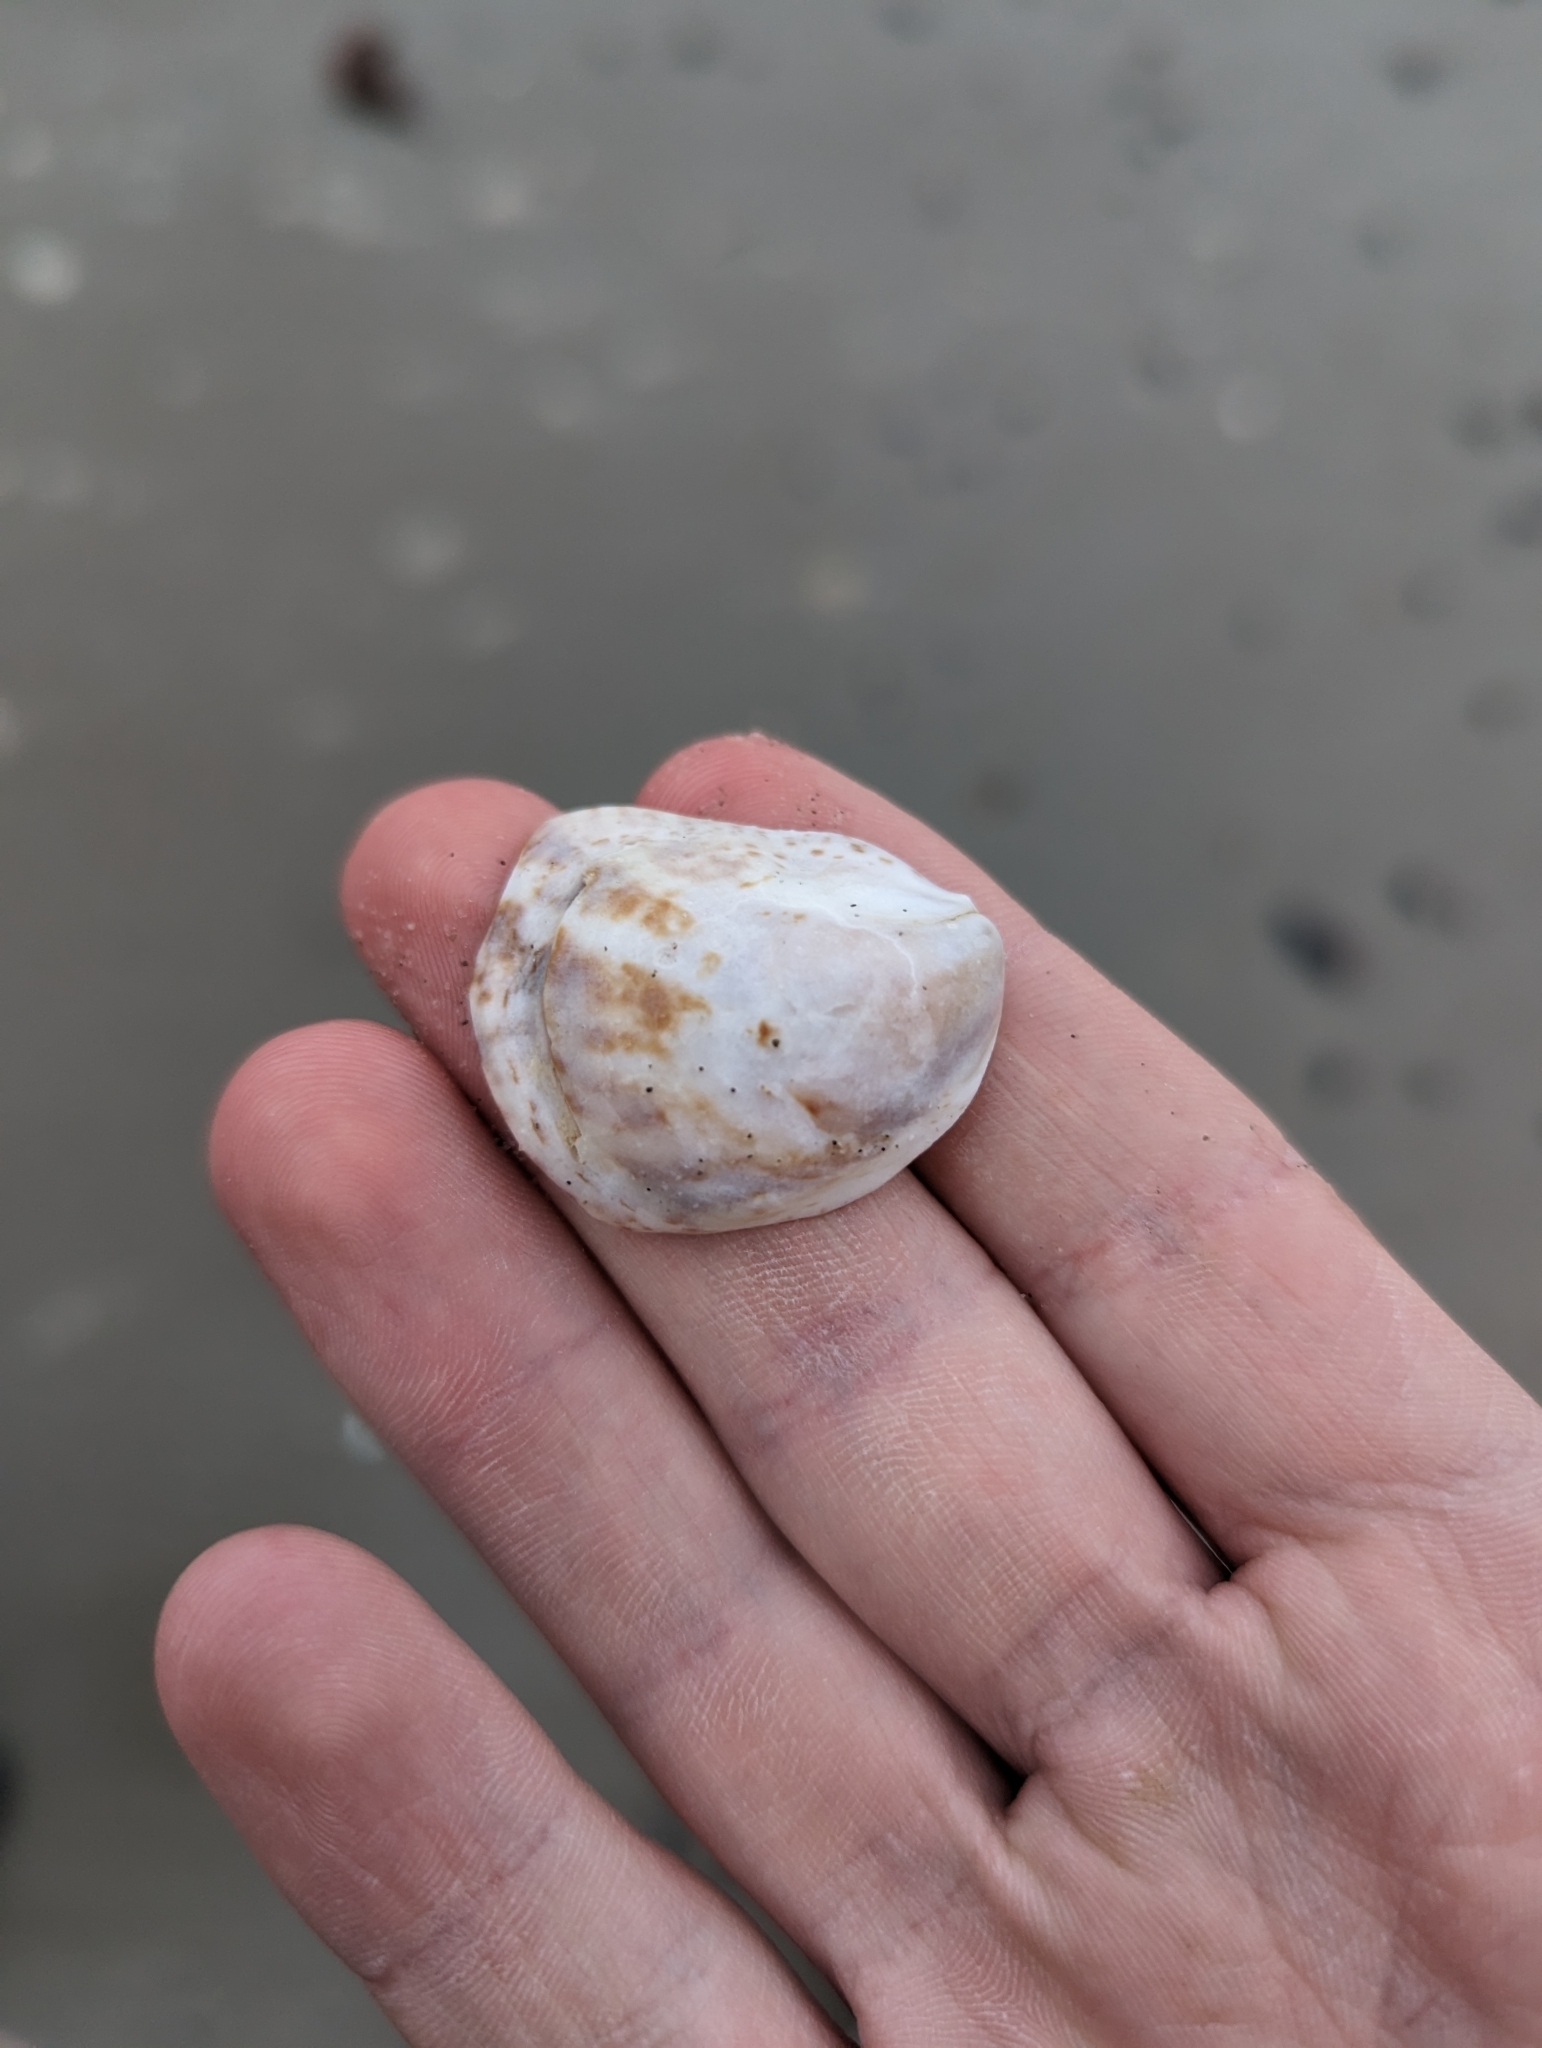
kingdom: Animalia
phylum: Mollusca
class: Gastropoda
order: Littorinimorpha
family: Calyptraeidae
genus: Crepidula
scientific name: Crepidula fornicata
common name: Slipper limpet
